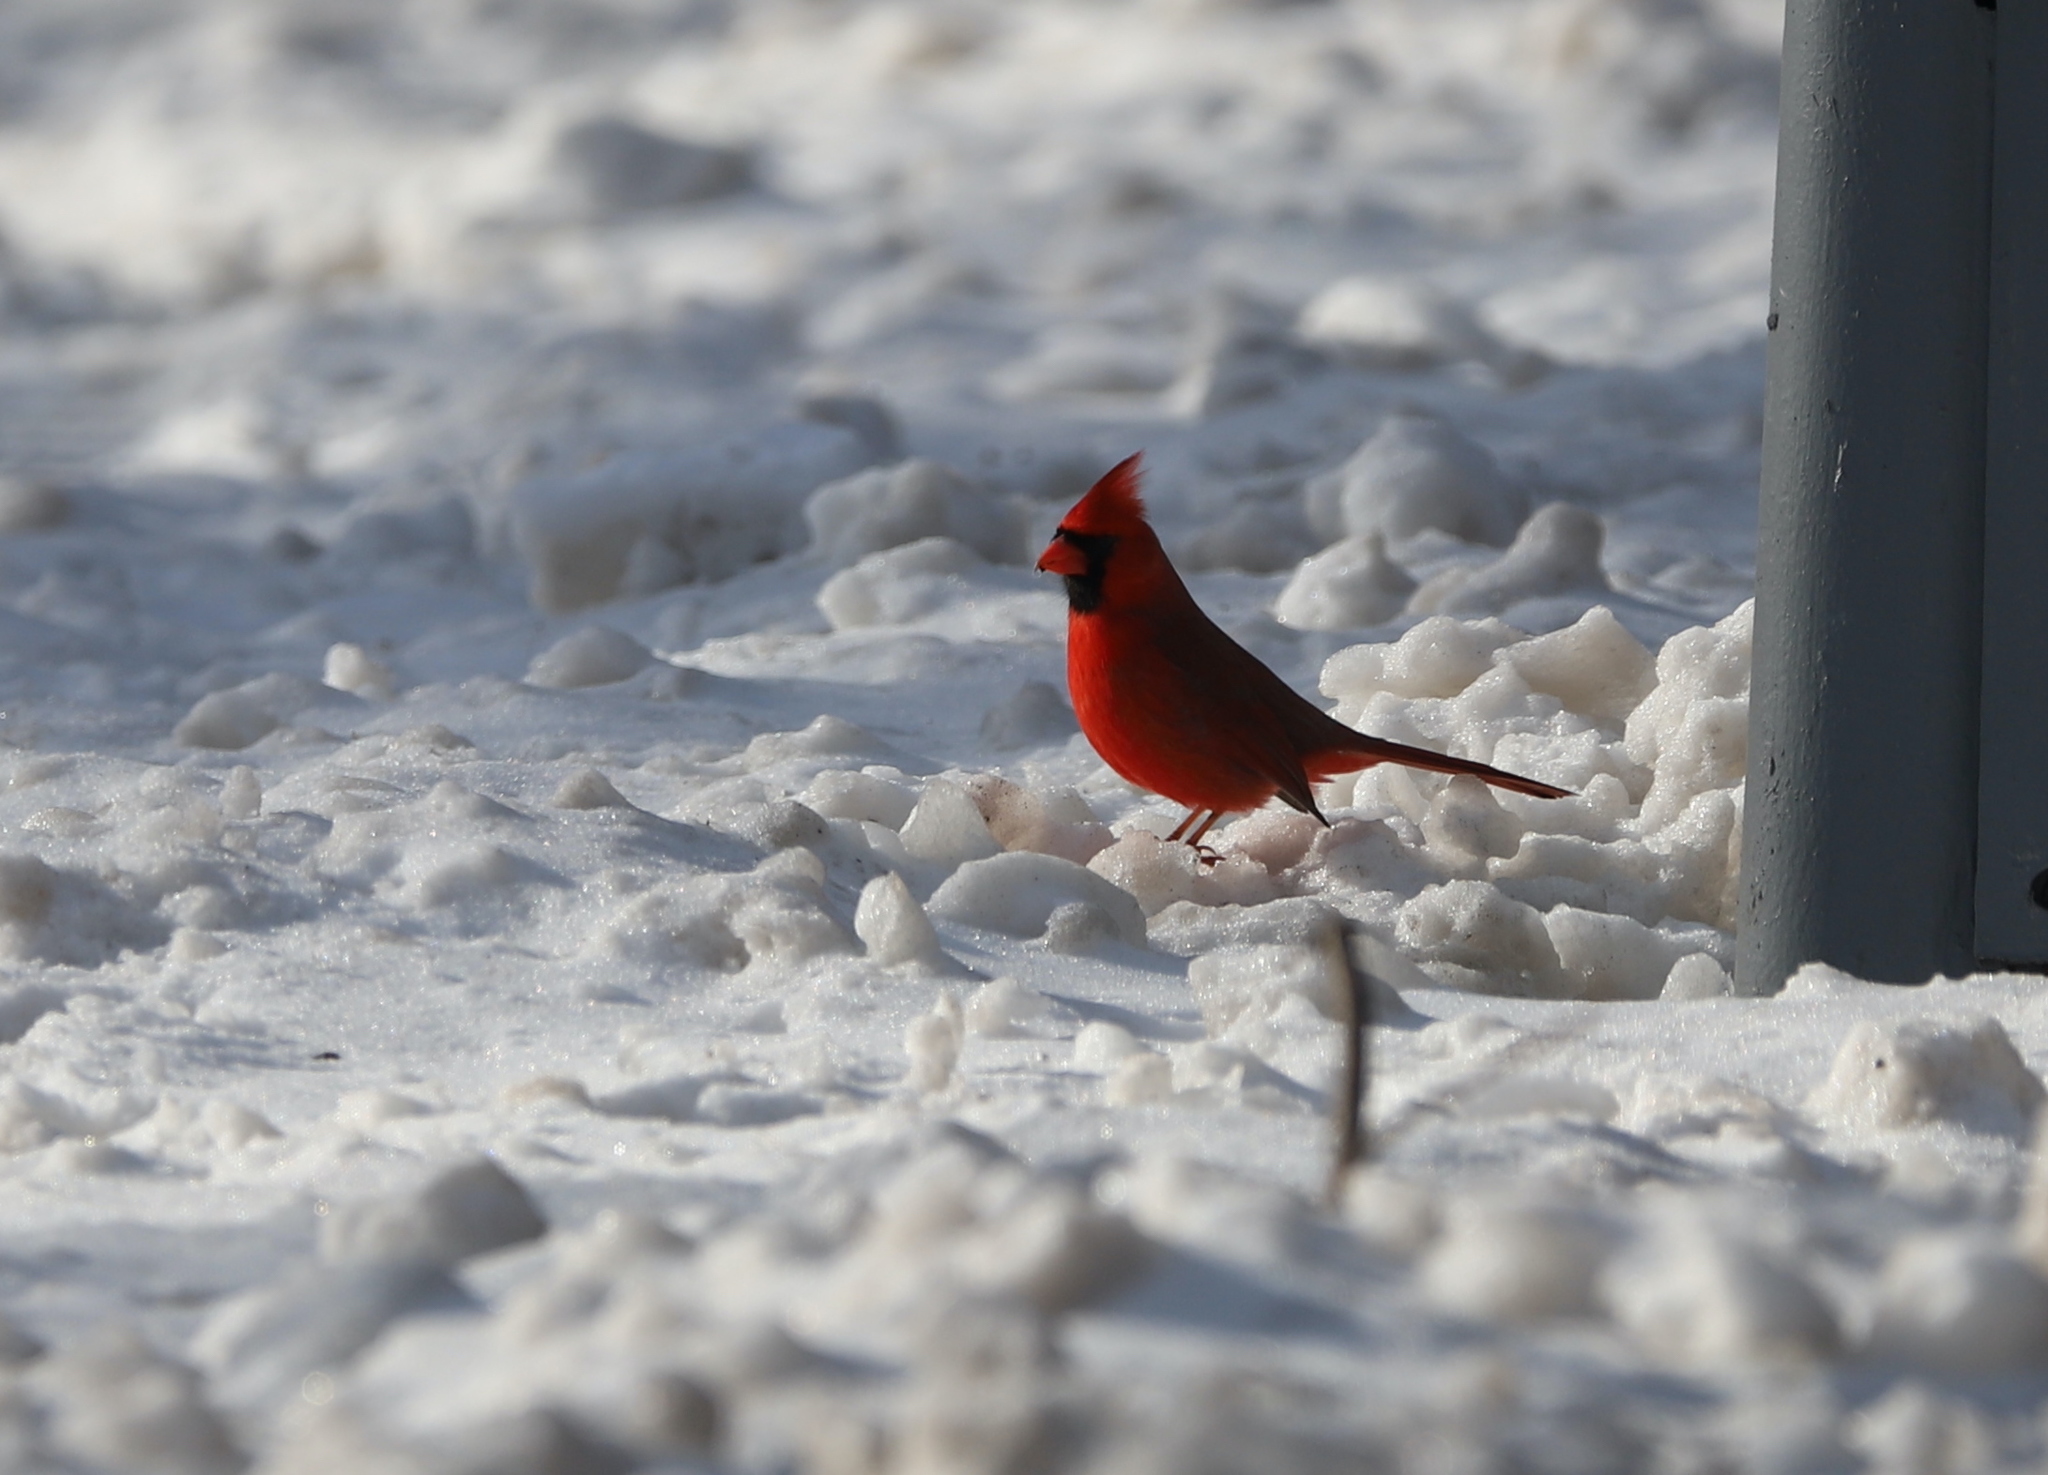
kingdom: Animalia
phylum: Chordata
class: Aves
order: Passeriformes
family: Cardinalidae
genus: Cardinalis
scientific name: Cardinalis cardinalis
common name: Northern cardinal
